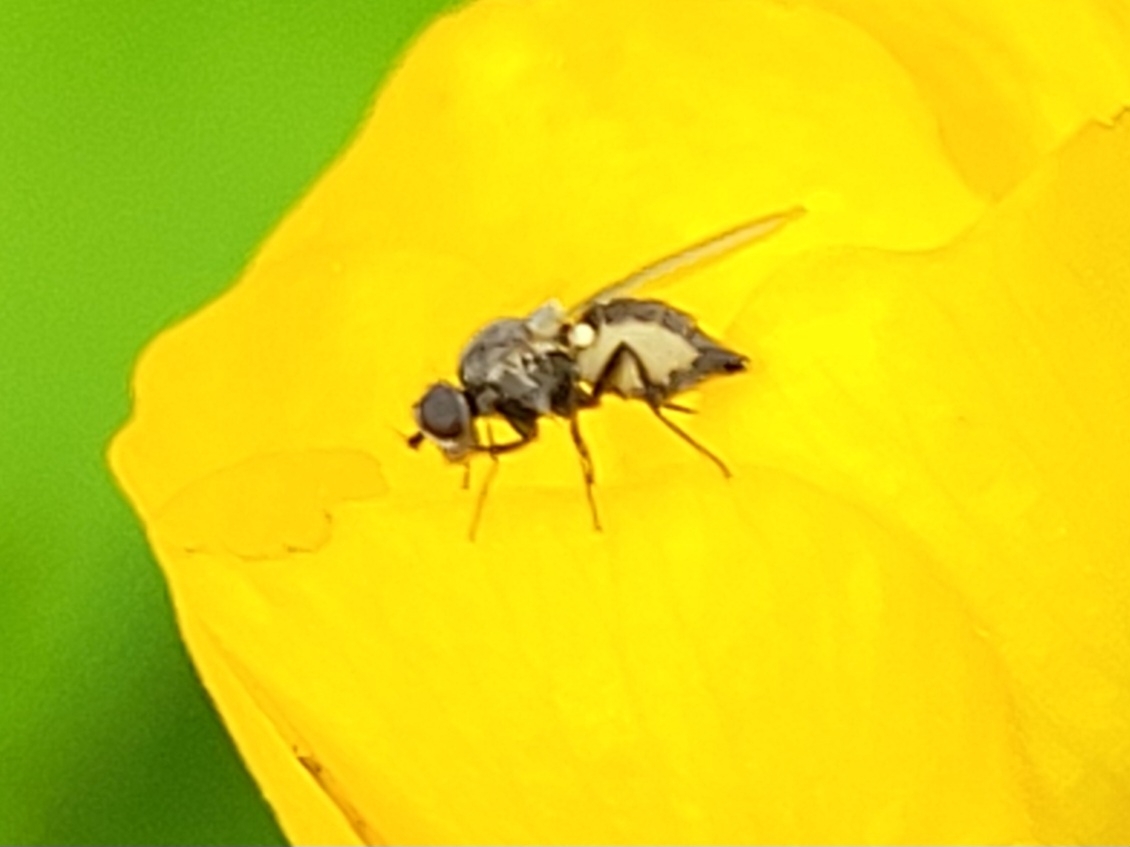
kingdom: Fungi
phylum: Entomophthoromycota
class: Entomophthoromycetes
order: Entomophthorales
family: Entomophthoraceae
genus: Entomophthora
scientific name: Entomophthora
